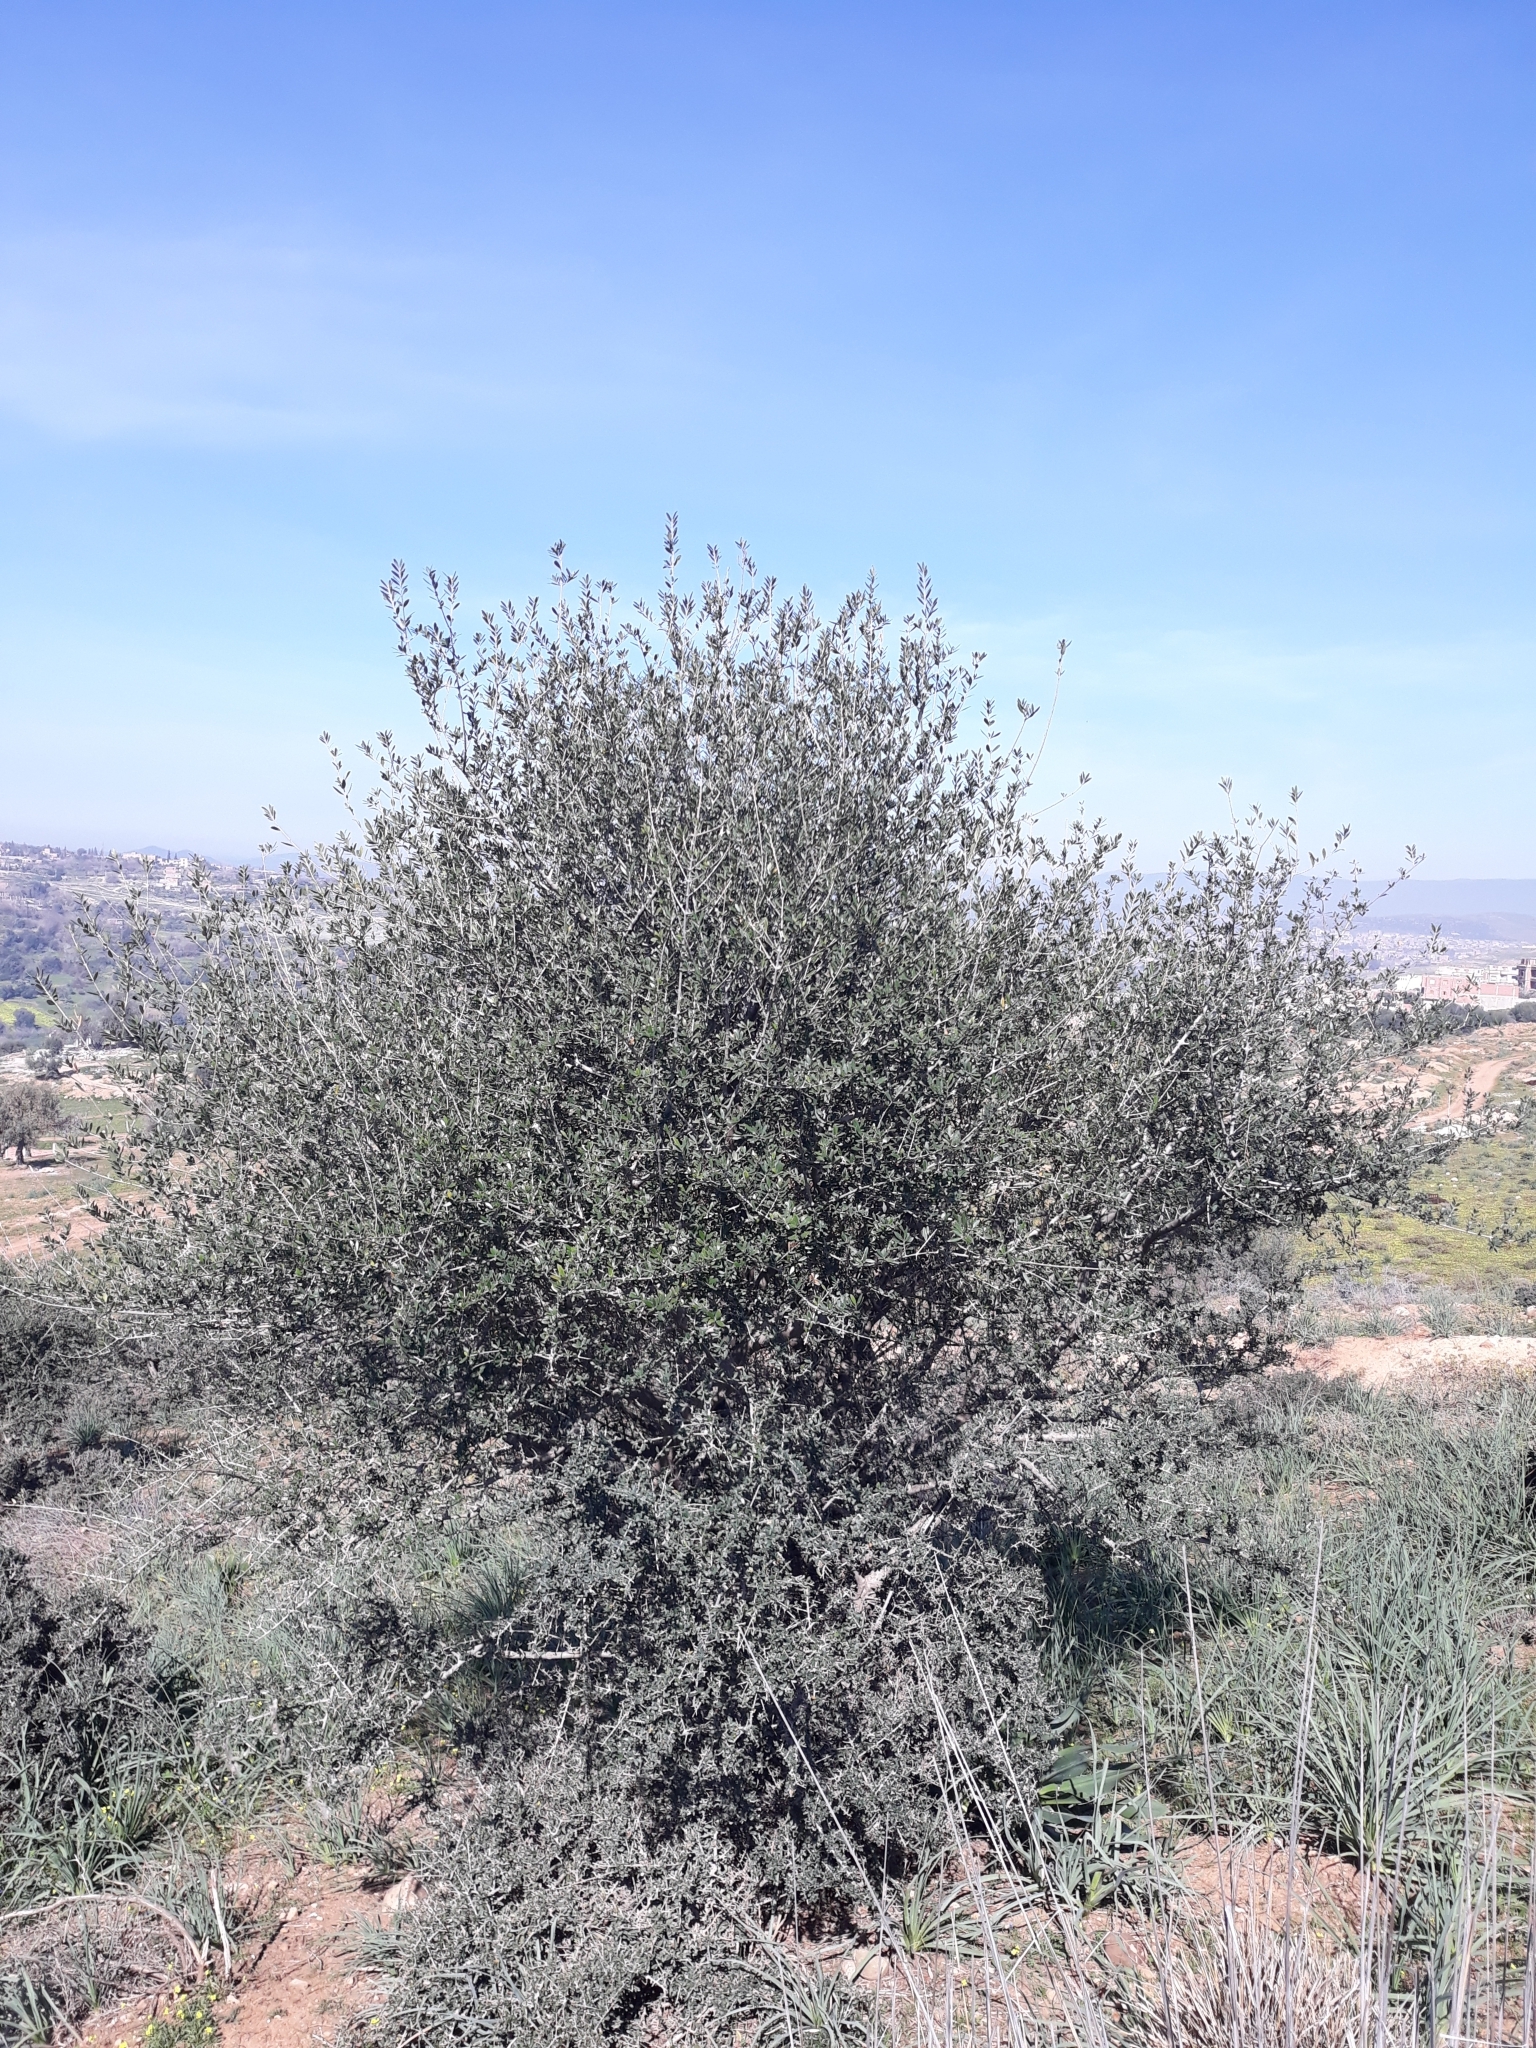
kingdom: Plantae
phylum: Tracheophyta
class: Magnoliopsida
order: Lamiales
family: Oleaceae
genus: Olea
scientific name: Olea europaea
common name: Olive
